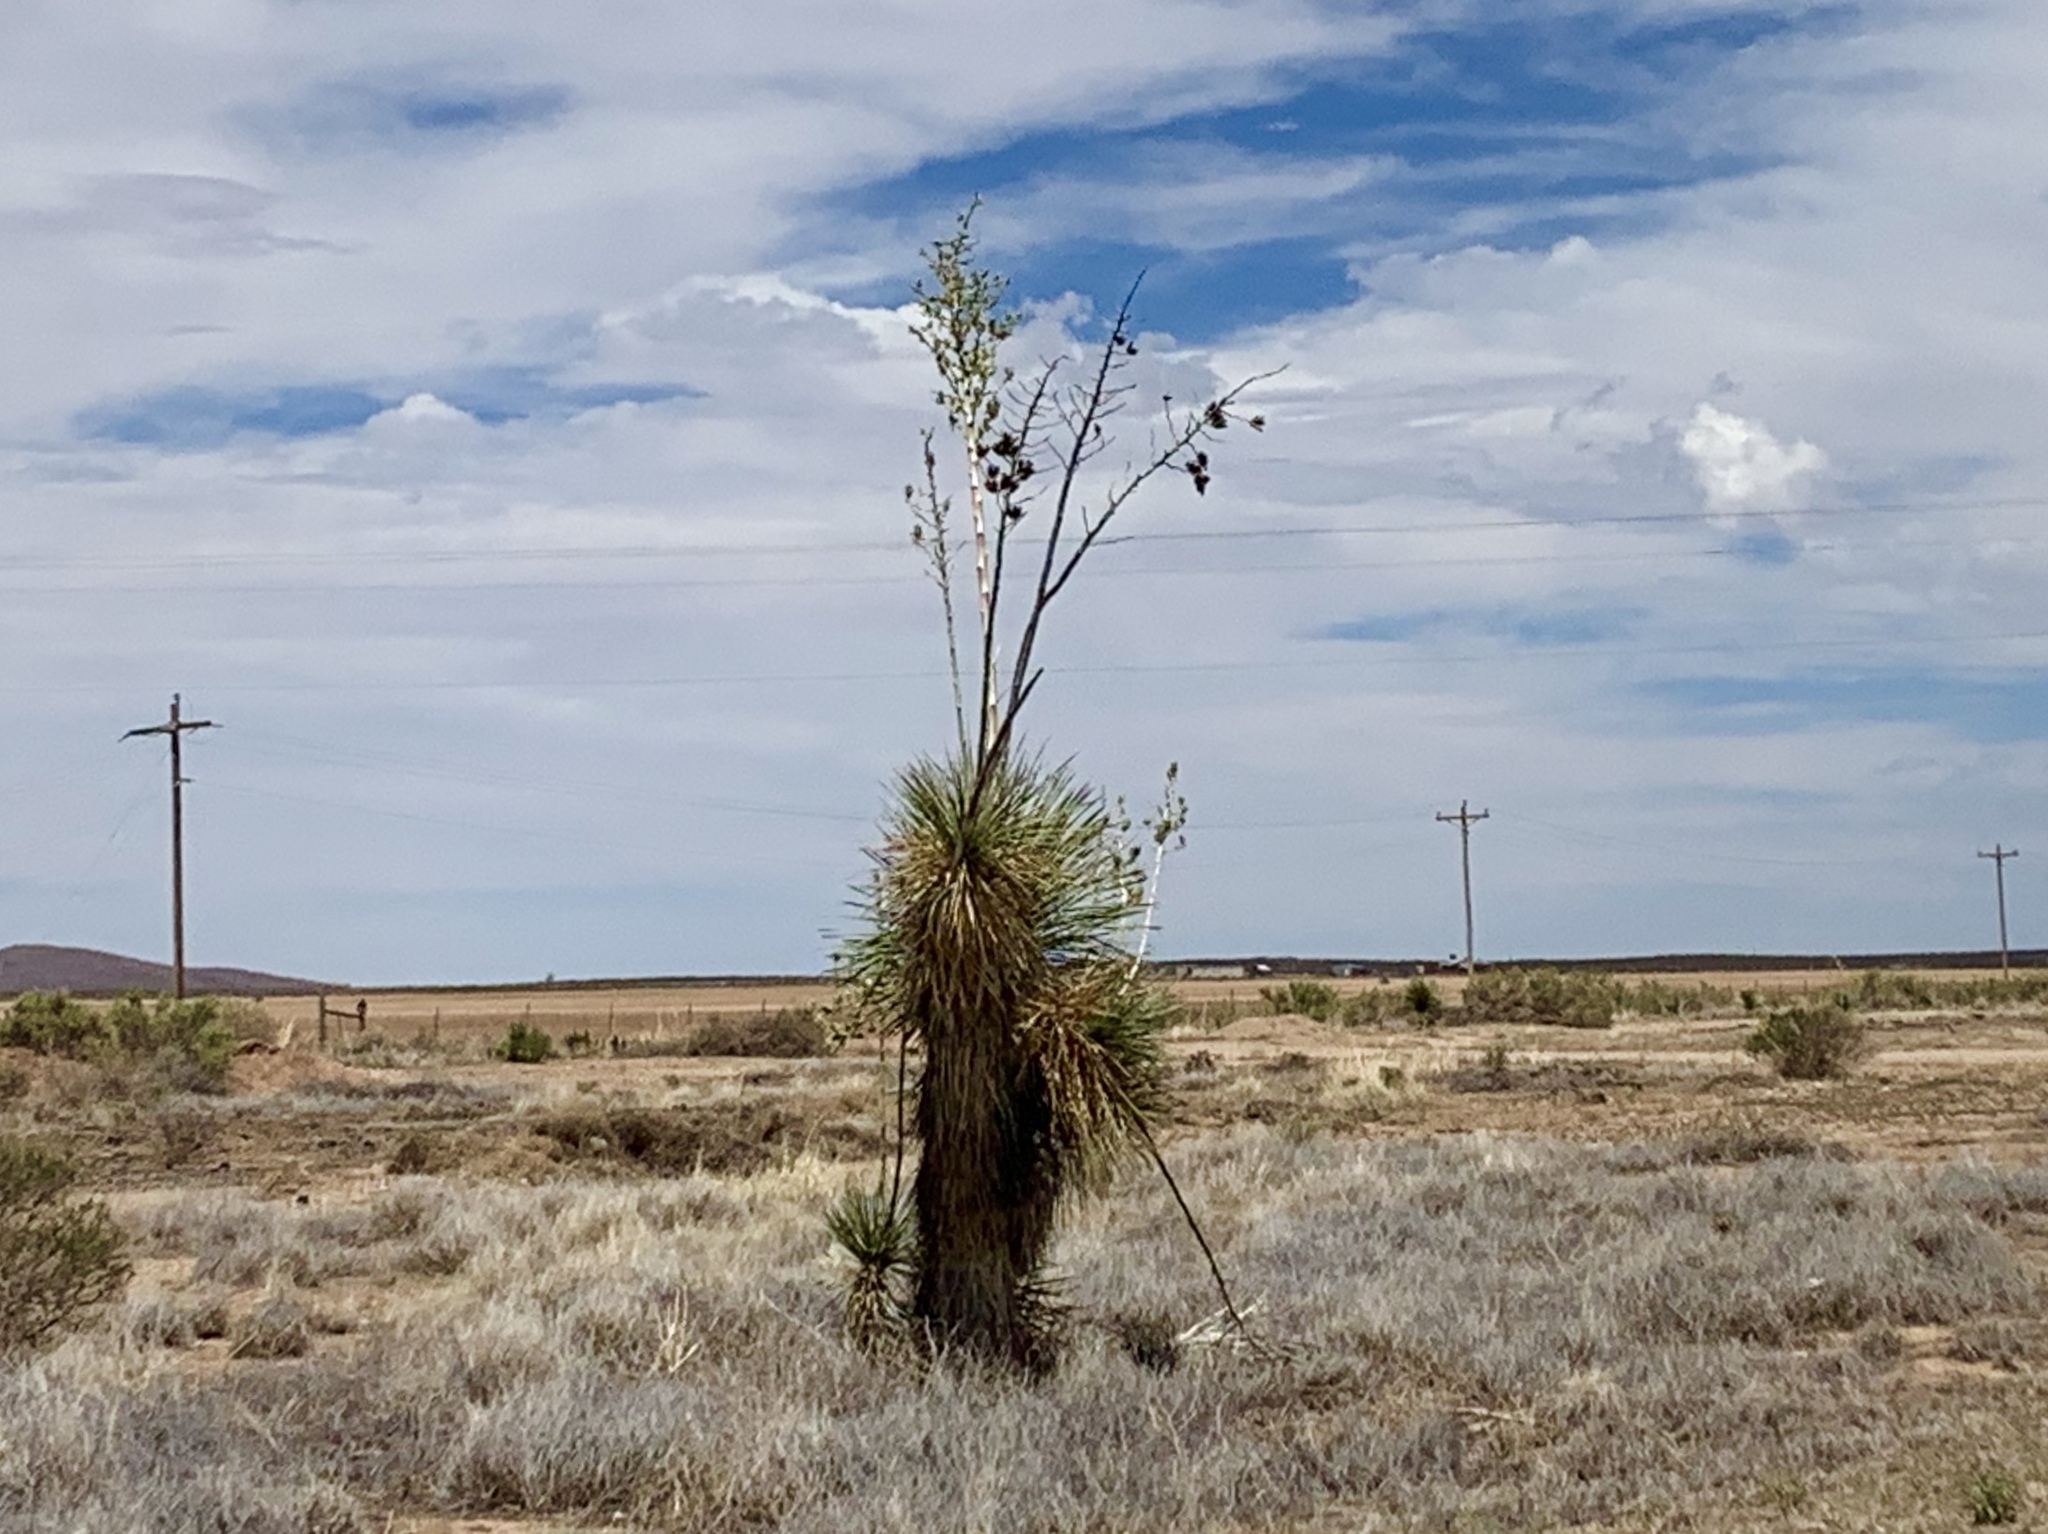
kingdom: Plantae
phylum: Tracheophyta
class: Liliopsida
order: Asparagales
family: Asparagaceae
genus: Yucca
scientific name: Yucca elata
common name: Palmella
